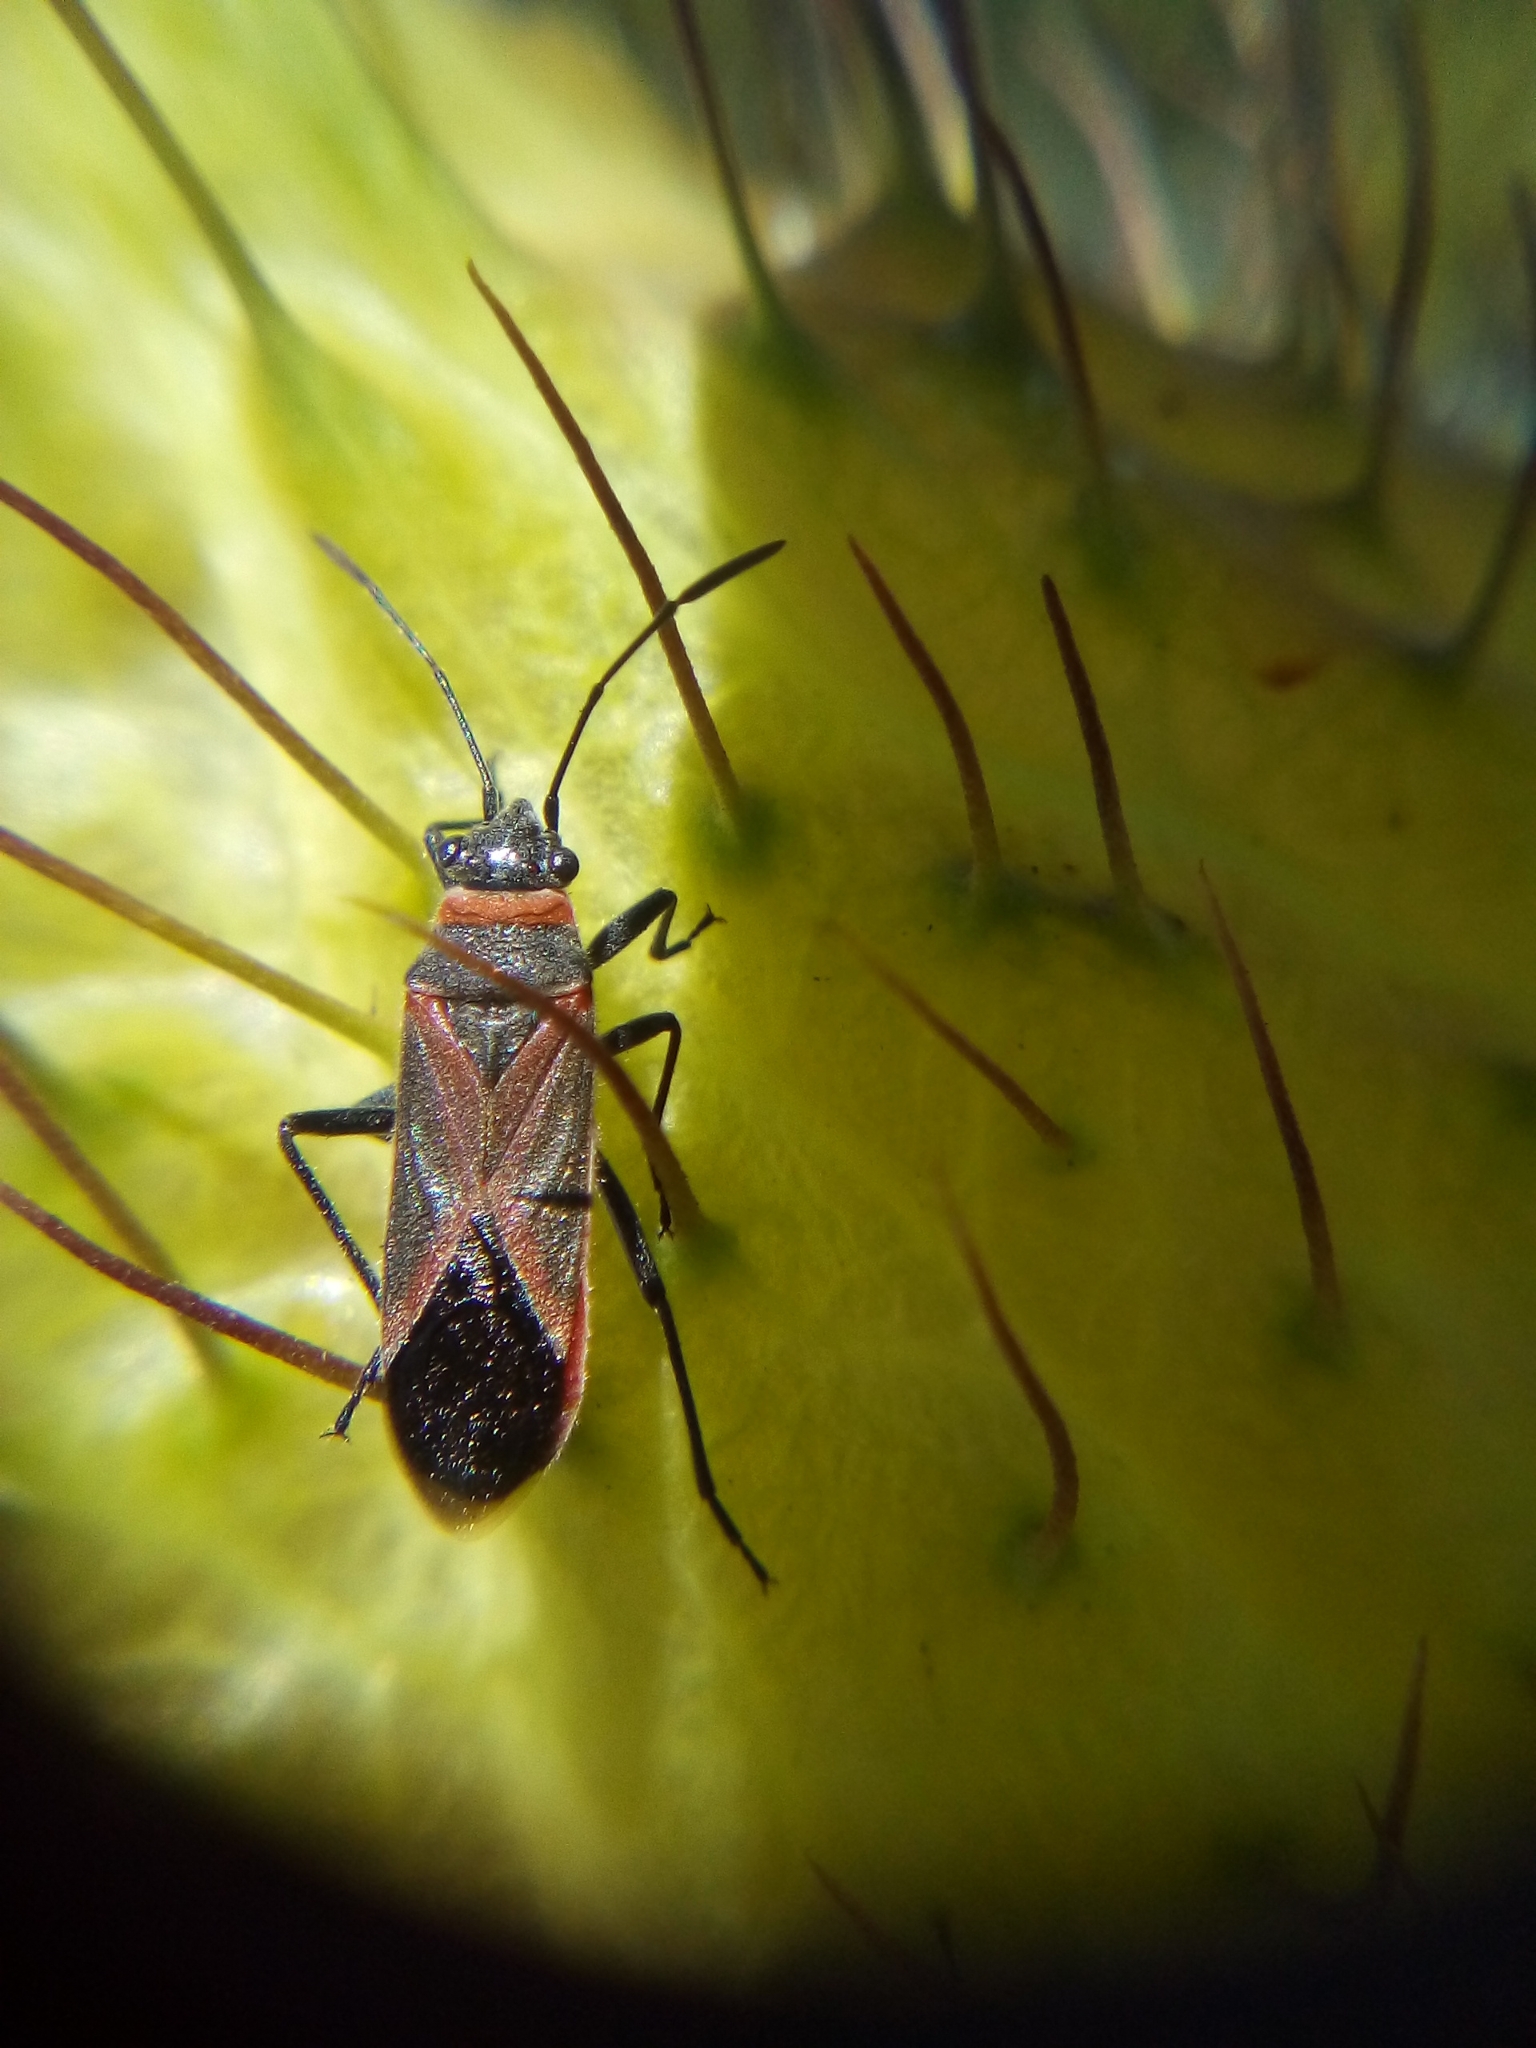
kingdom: Animalia
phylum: Arthropoda
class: Insecta
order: Hemiptera
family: Lygaeidae
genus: Arocatus
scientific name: Arocatus rusticus
